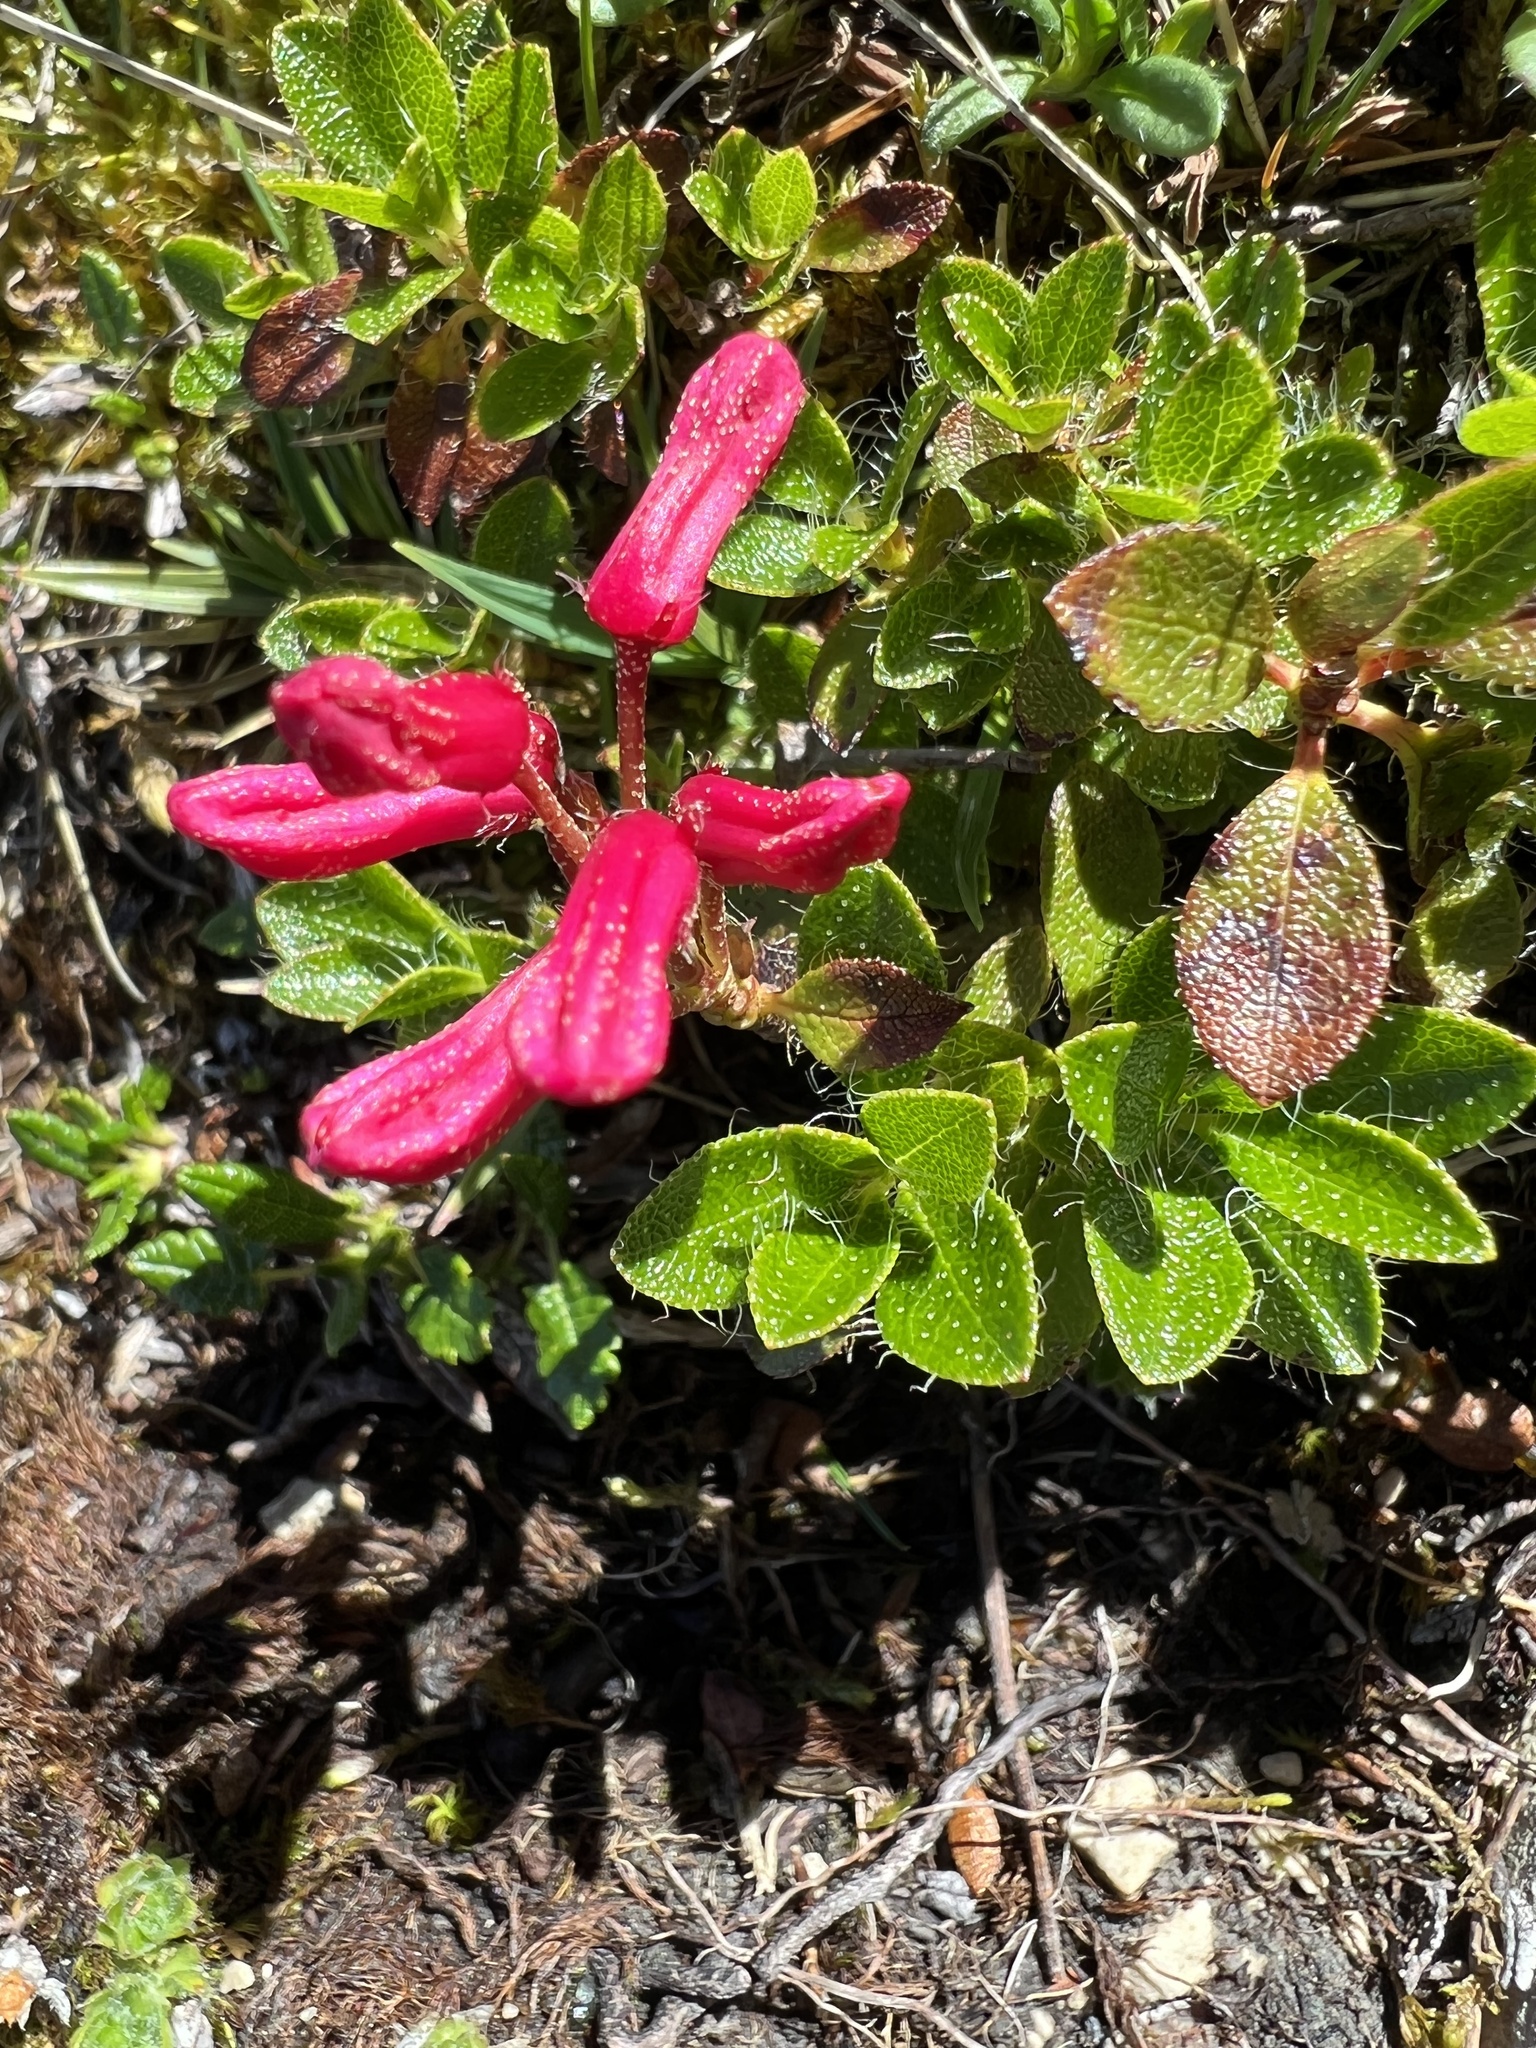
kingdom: Plantae
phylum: Tracheophyta
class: Magnoliopsida
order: Ericales
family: Ericaceae
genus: Rhododendron
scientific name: Rhododendron hirsutum
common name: Hairy alpenrose
